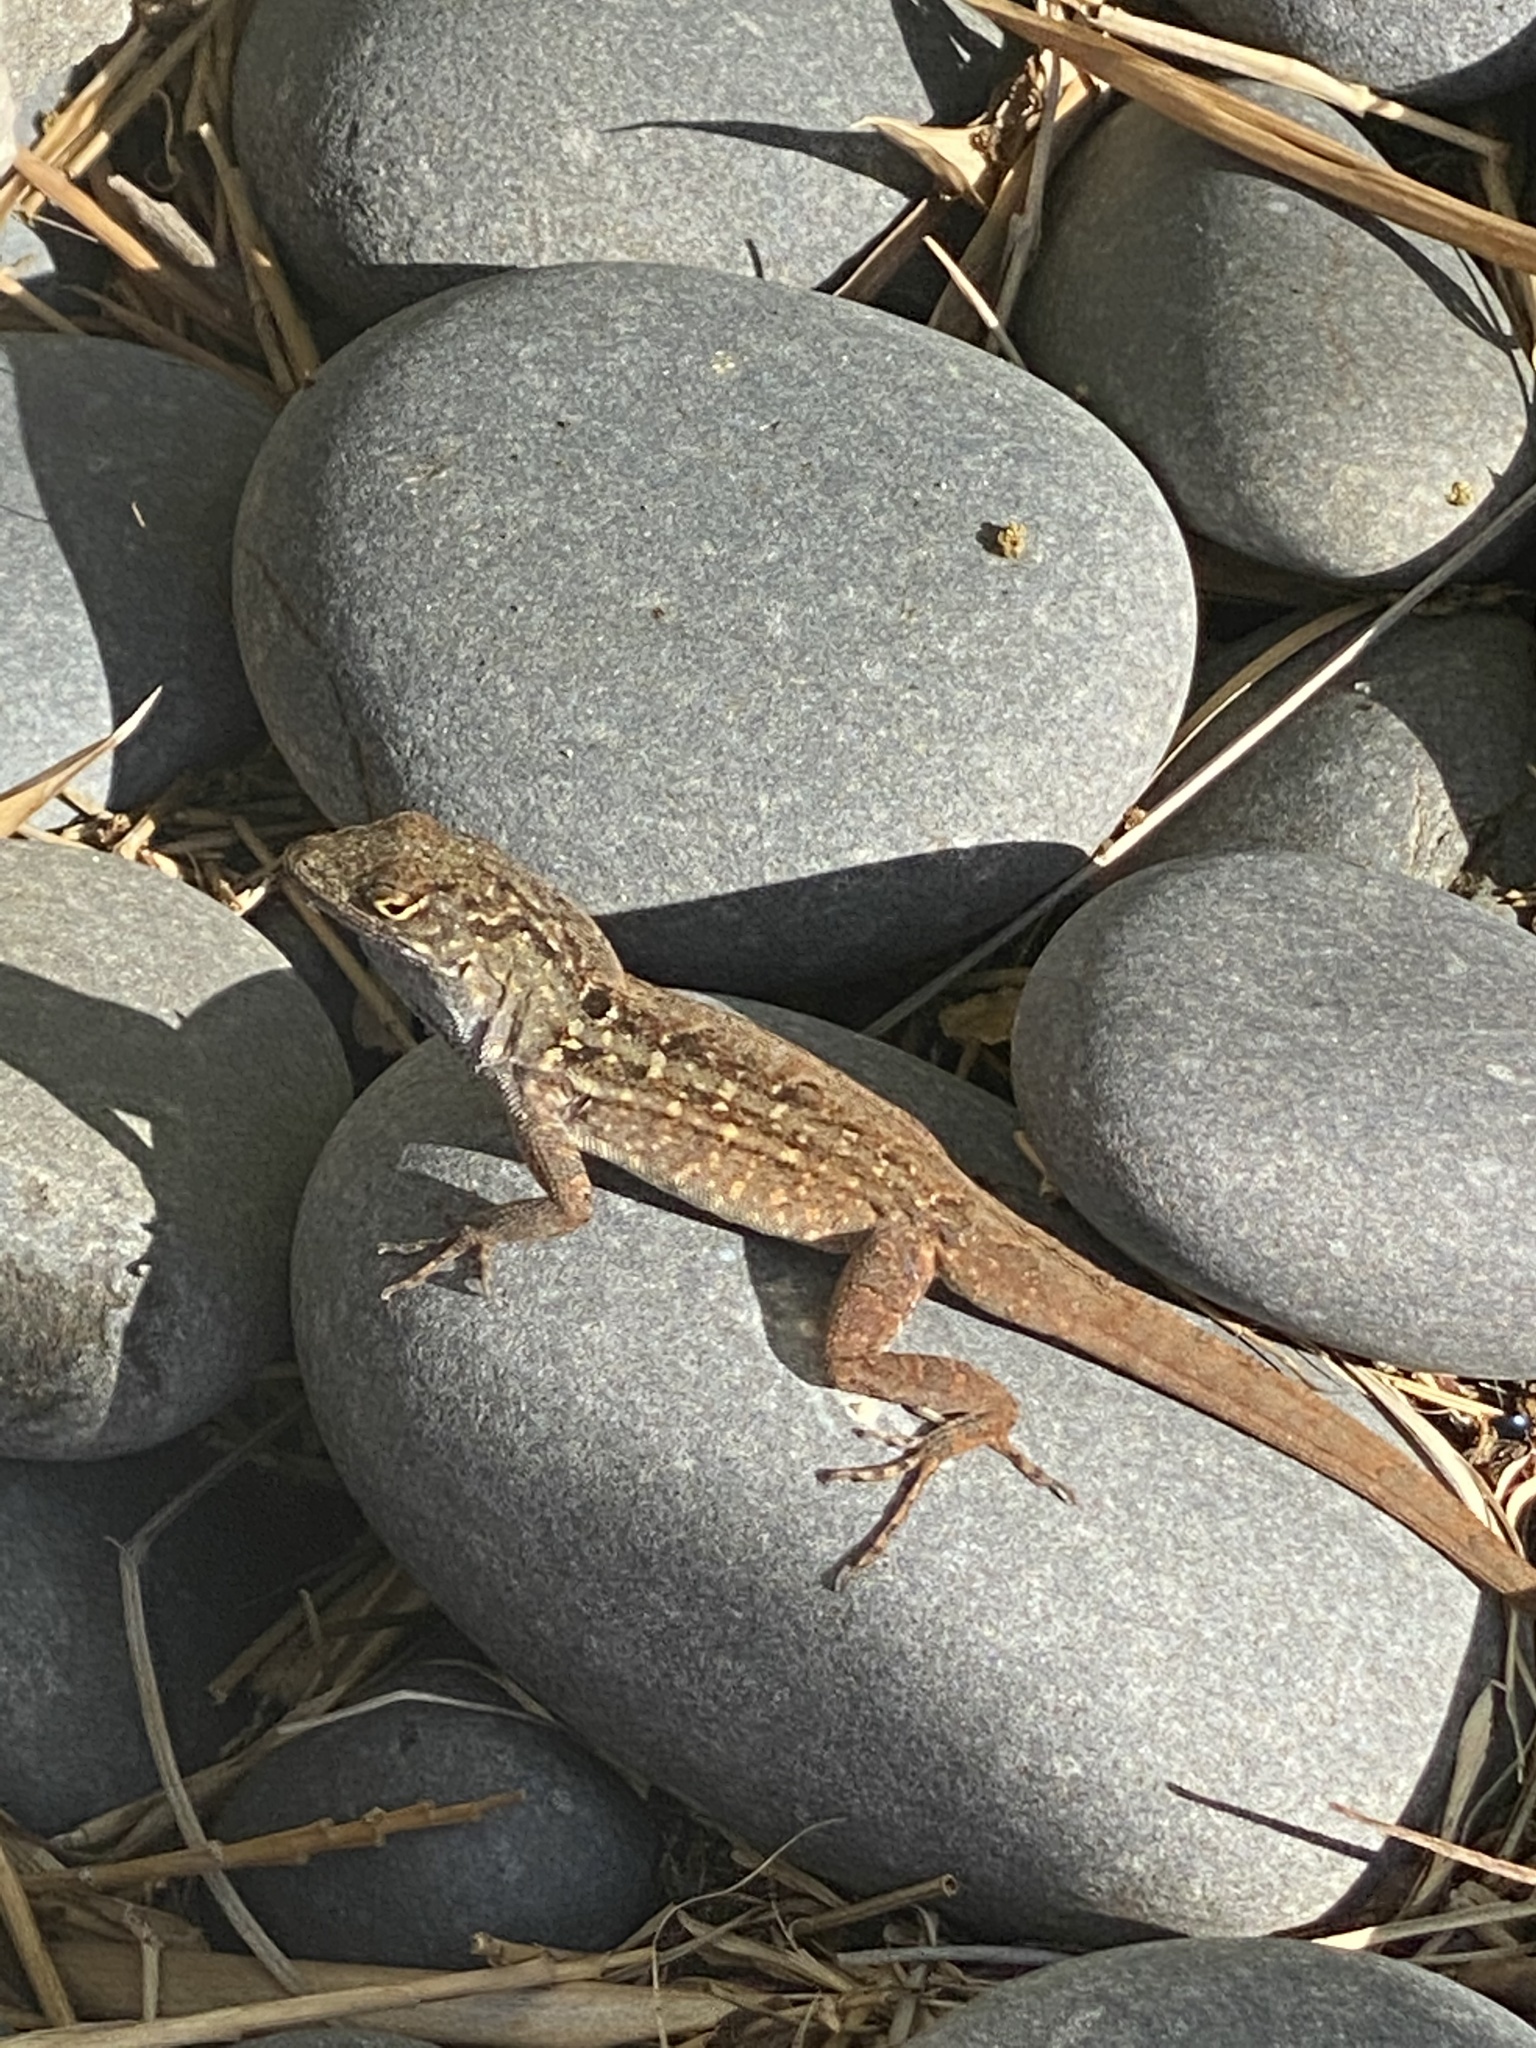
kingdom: Animalia
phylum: Chordata
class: Squamata
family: Dactyloidae
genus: Anolis
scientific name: Anolis sagrei
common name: Brown anole
